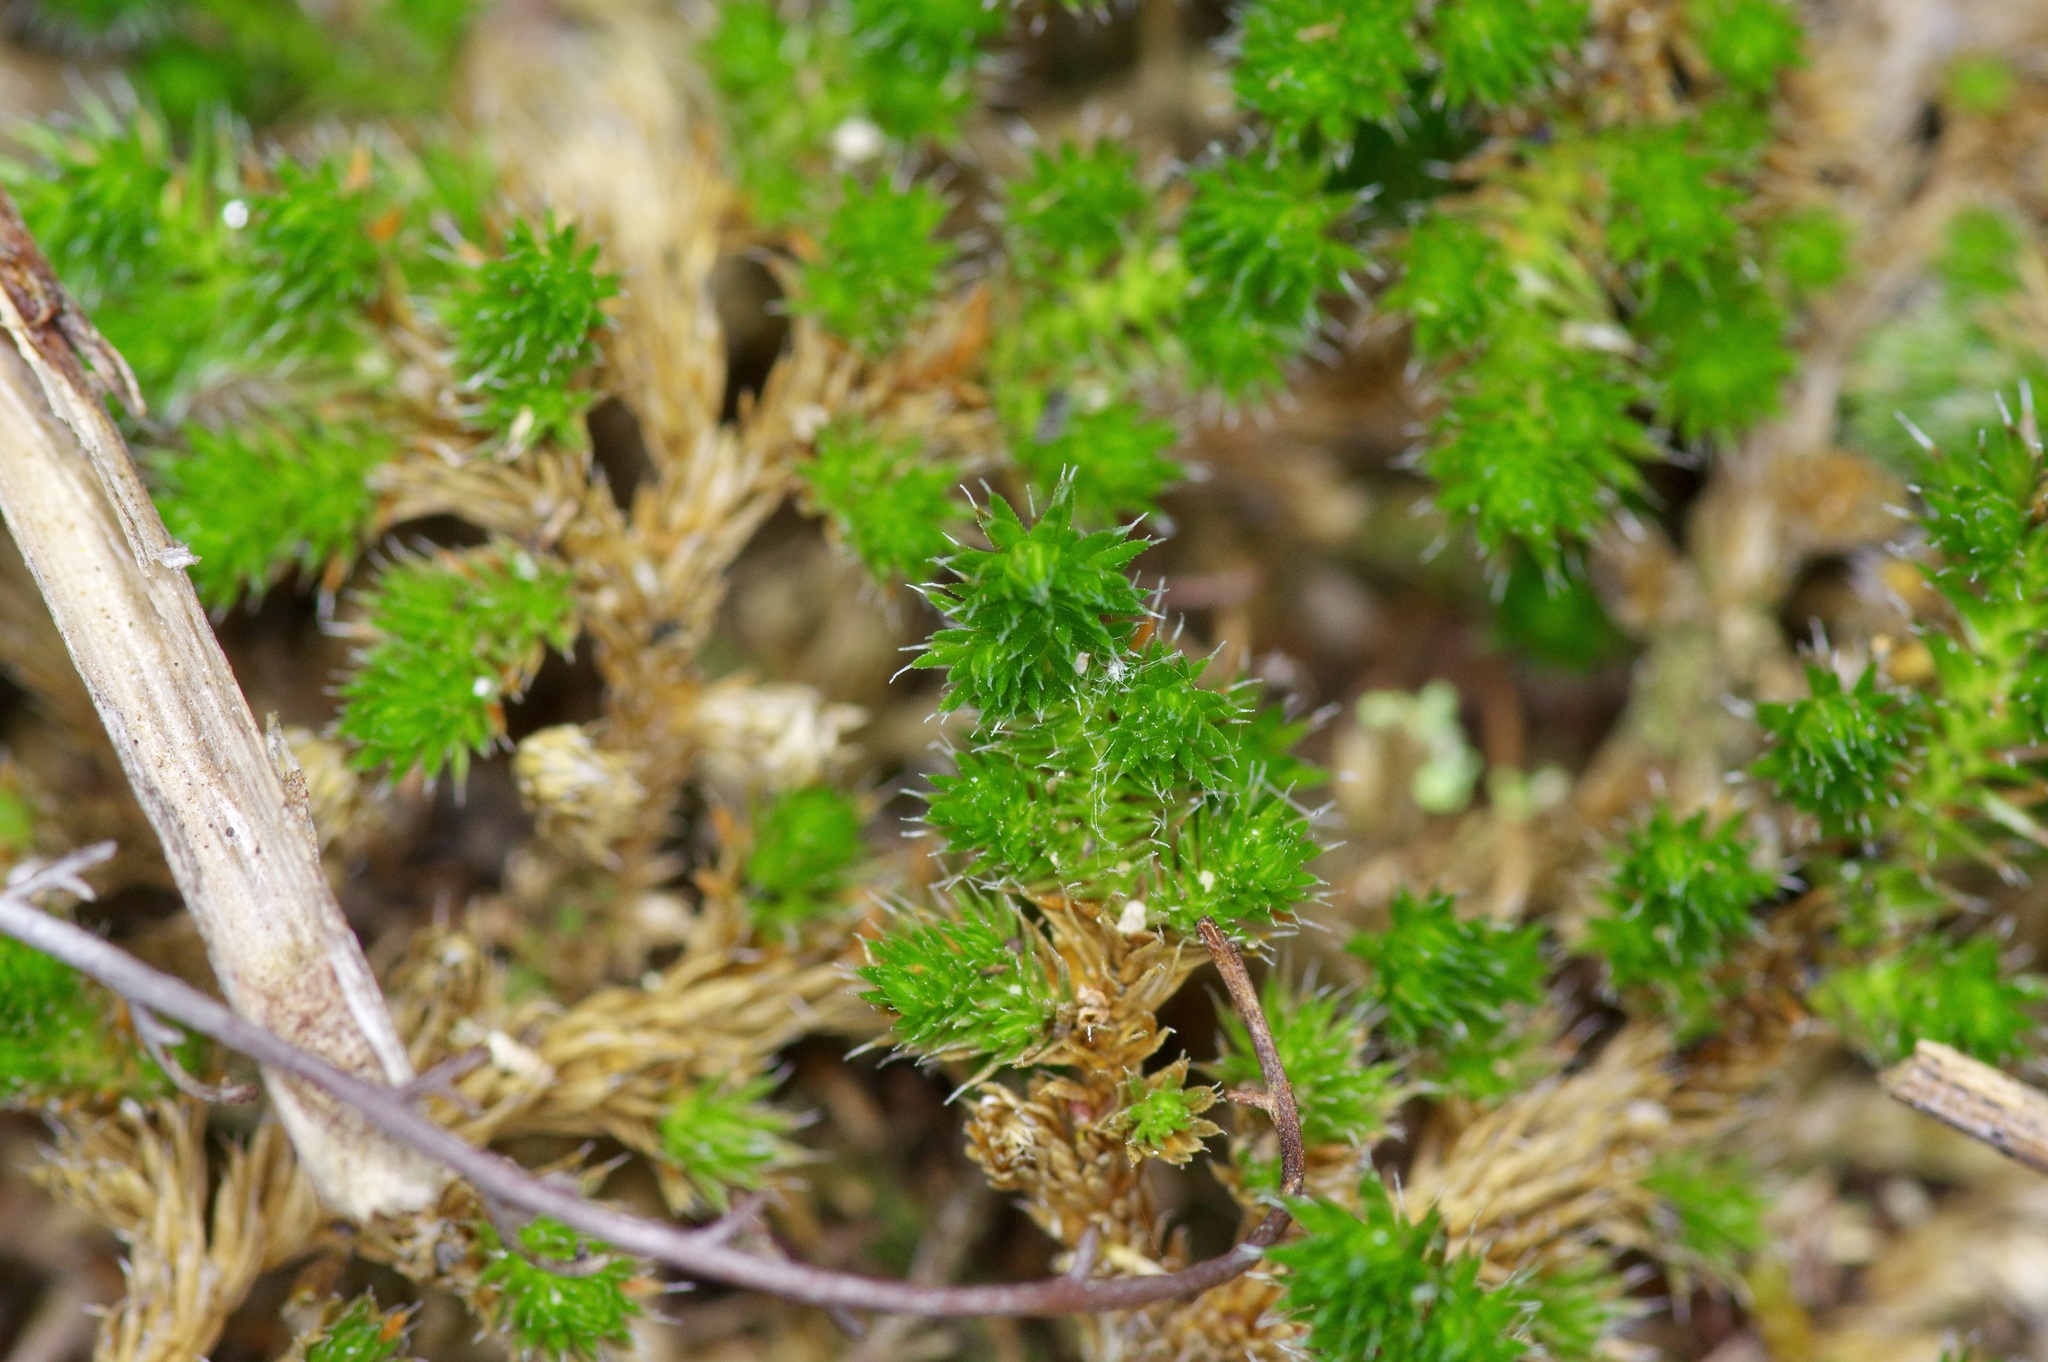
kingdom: Plantae
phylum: Tracheophyta
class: Lycopodiopsida
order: Selaginellales
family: Selaginellaceae
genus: Selaginella
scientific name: Selaginella peruviana
